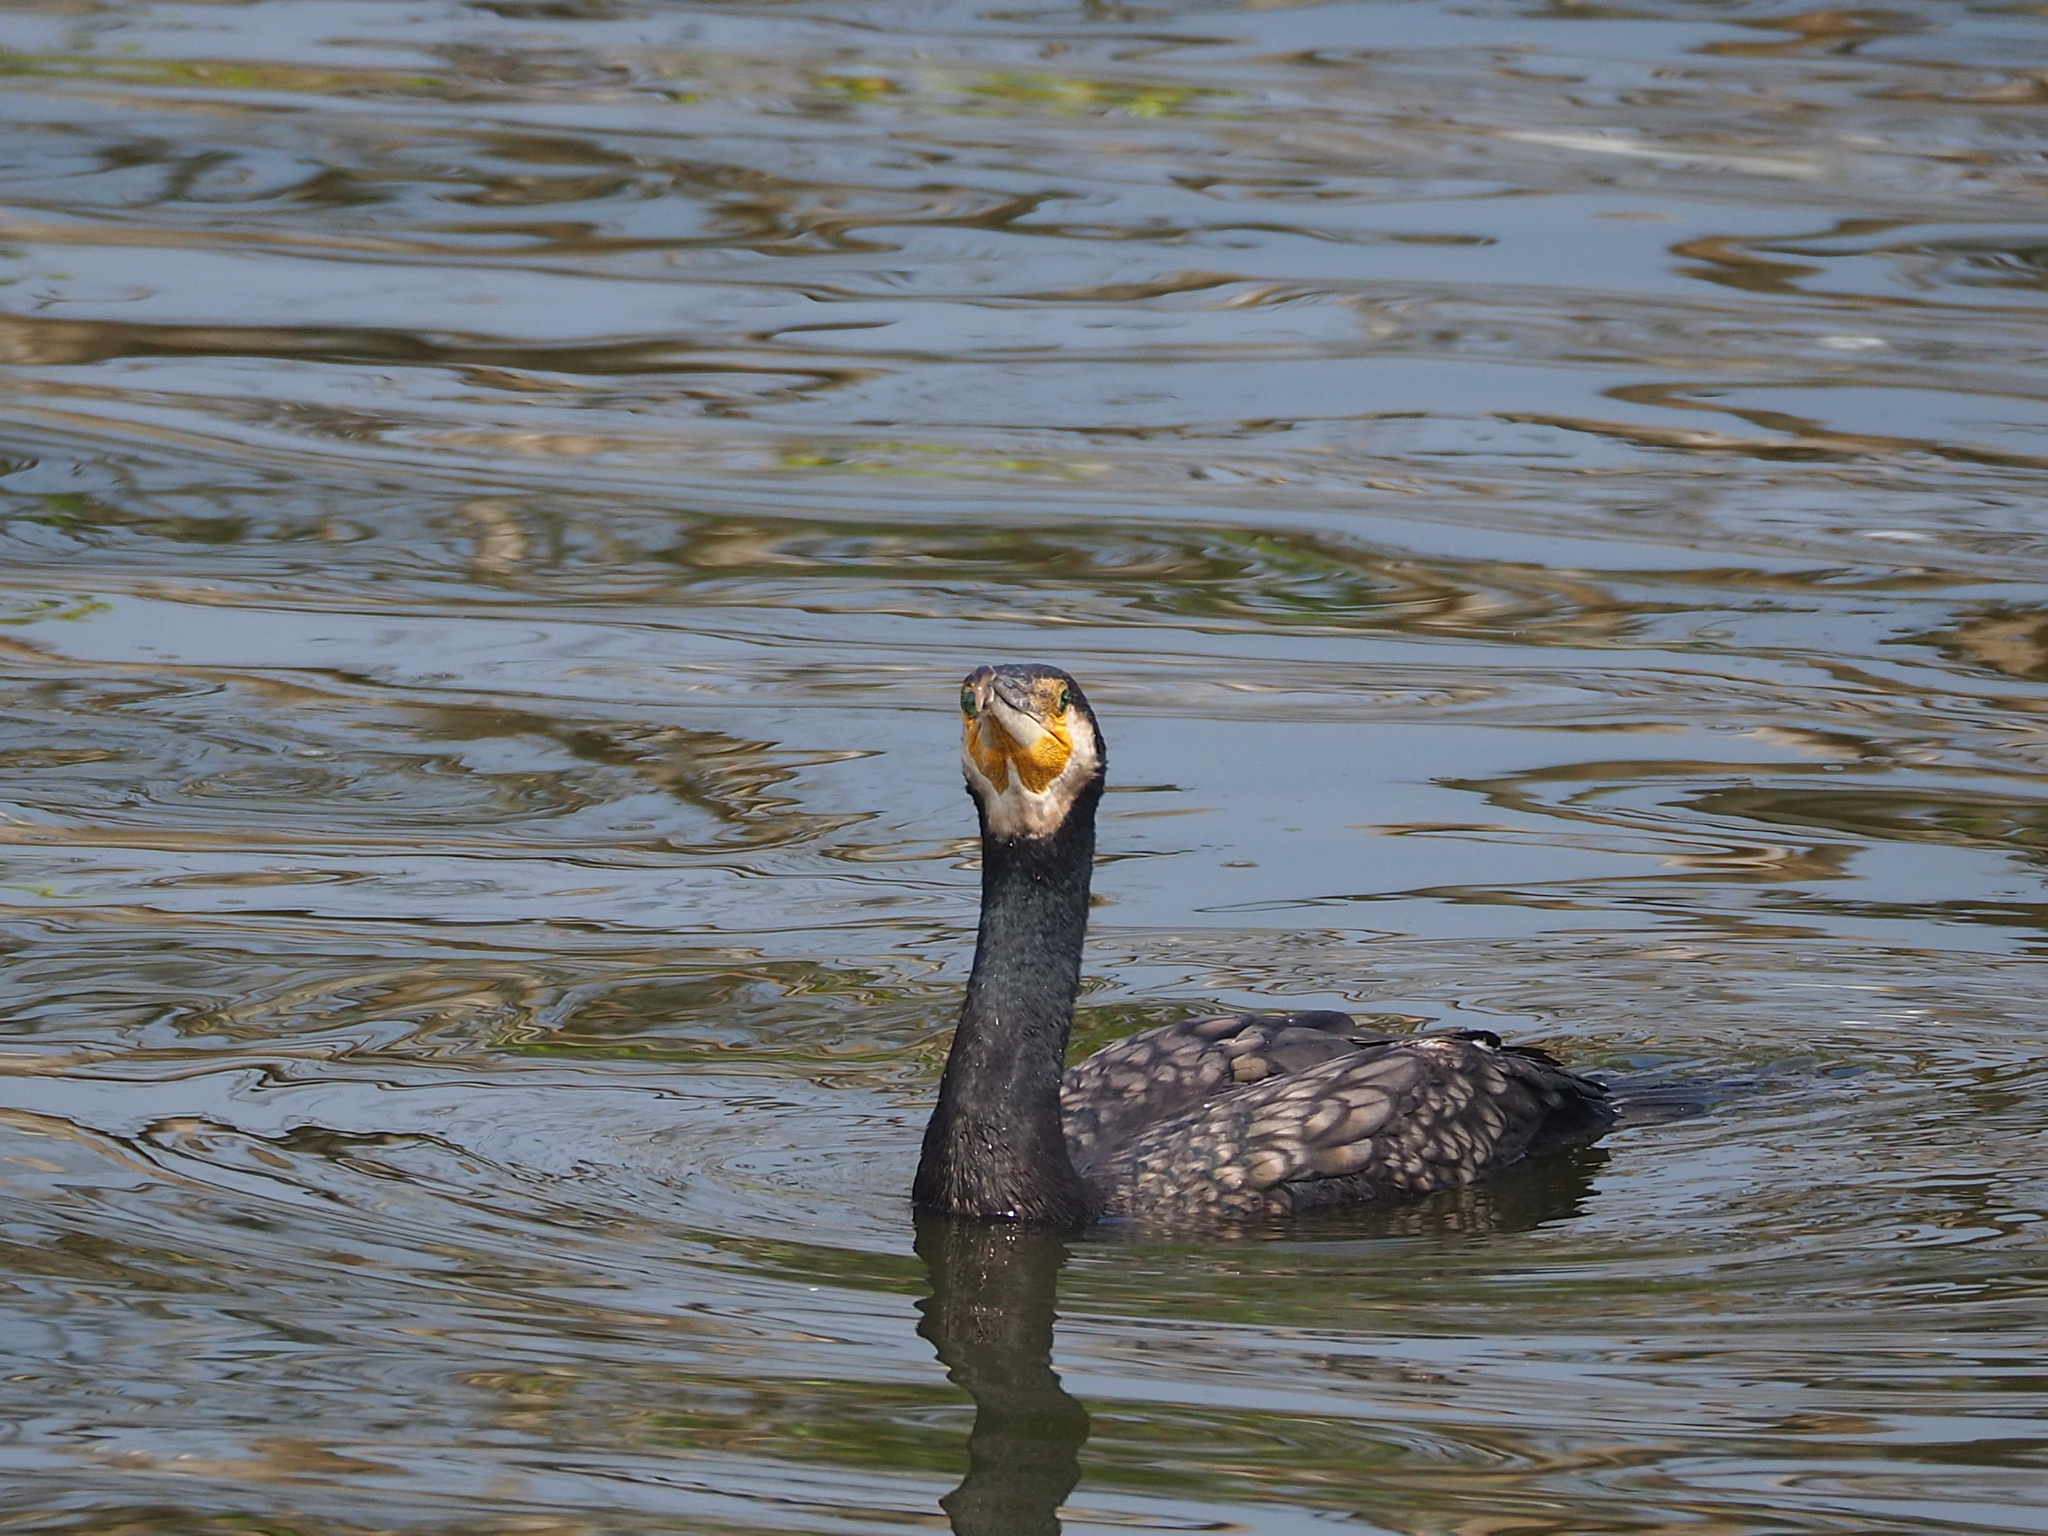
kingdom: Animalia
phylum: Chordata
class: Aves
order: Suliformes
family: Phalacrocoracidae
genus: Phalacrocorax
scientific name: Phalacrocorax carbo
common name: Great cormorant
